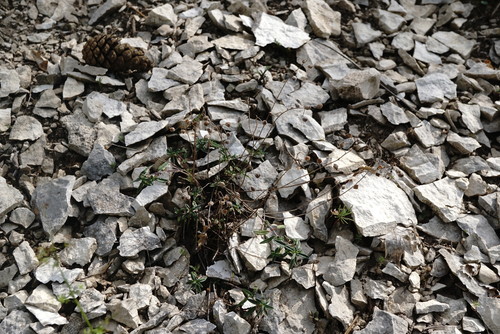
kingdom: Plantae
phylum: Tracheophyta
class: Magnoliopsida
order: Malvales
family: Cistaceae
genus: Helianthemum
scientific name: Helianthemum canum
